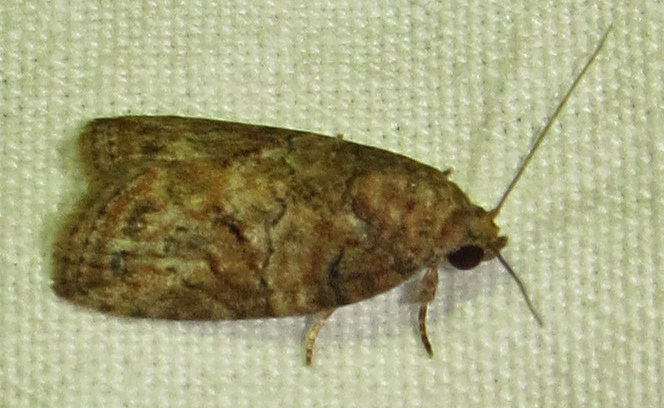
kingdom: Animalia
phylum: Arthropoda
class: Insecta
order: Lepidoptera
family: Nolidae
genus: Garella
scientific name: Garella nilotica
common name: Black-olive caterpillar moth
